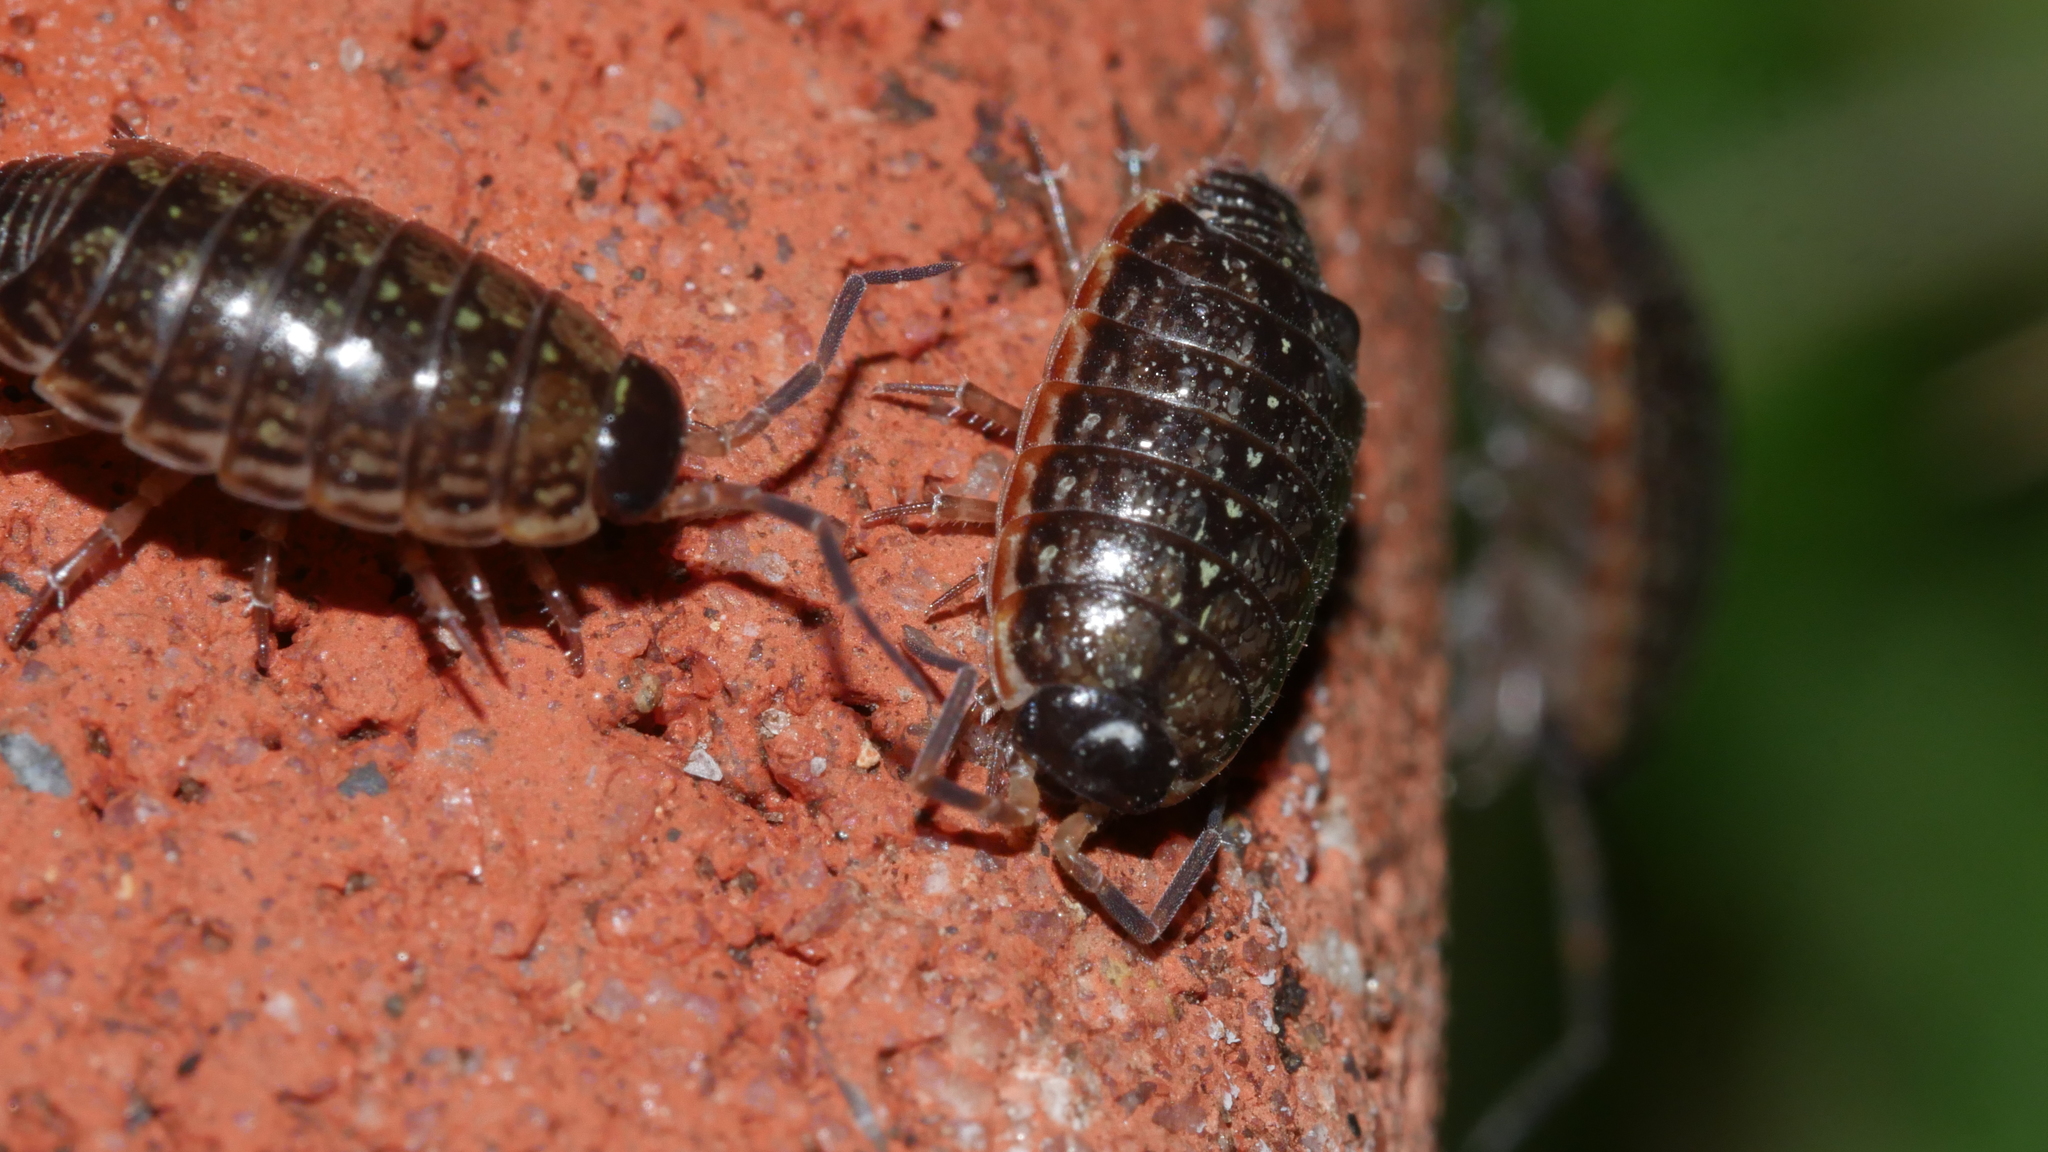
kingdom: Animalia
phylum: Arthropoda
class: Malacostraca
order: Isopoda
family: Philosciidae
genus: Philoscia
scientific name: Philoscia muscorum
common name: Common striped woodlouse
